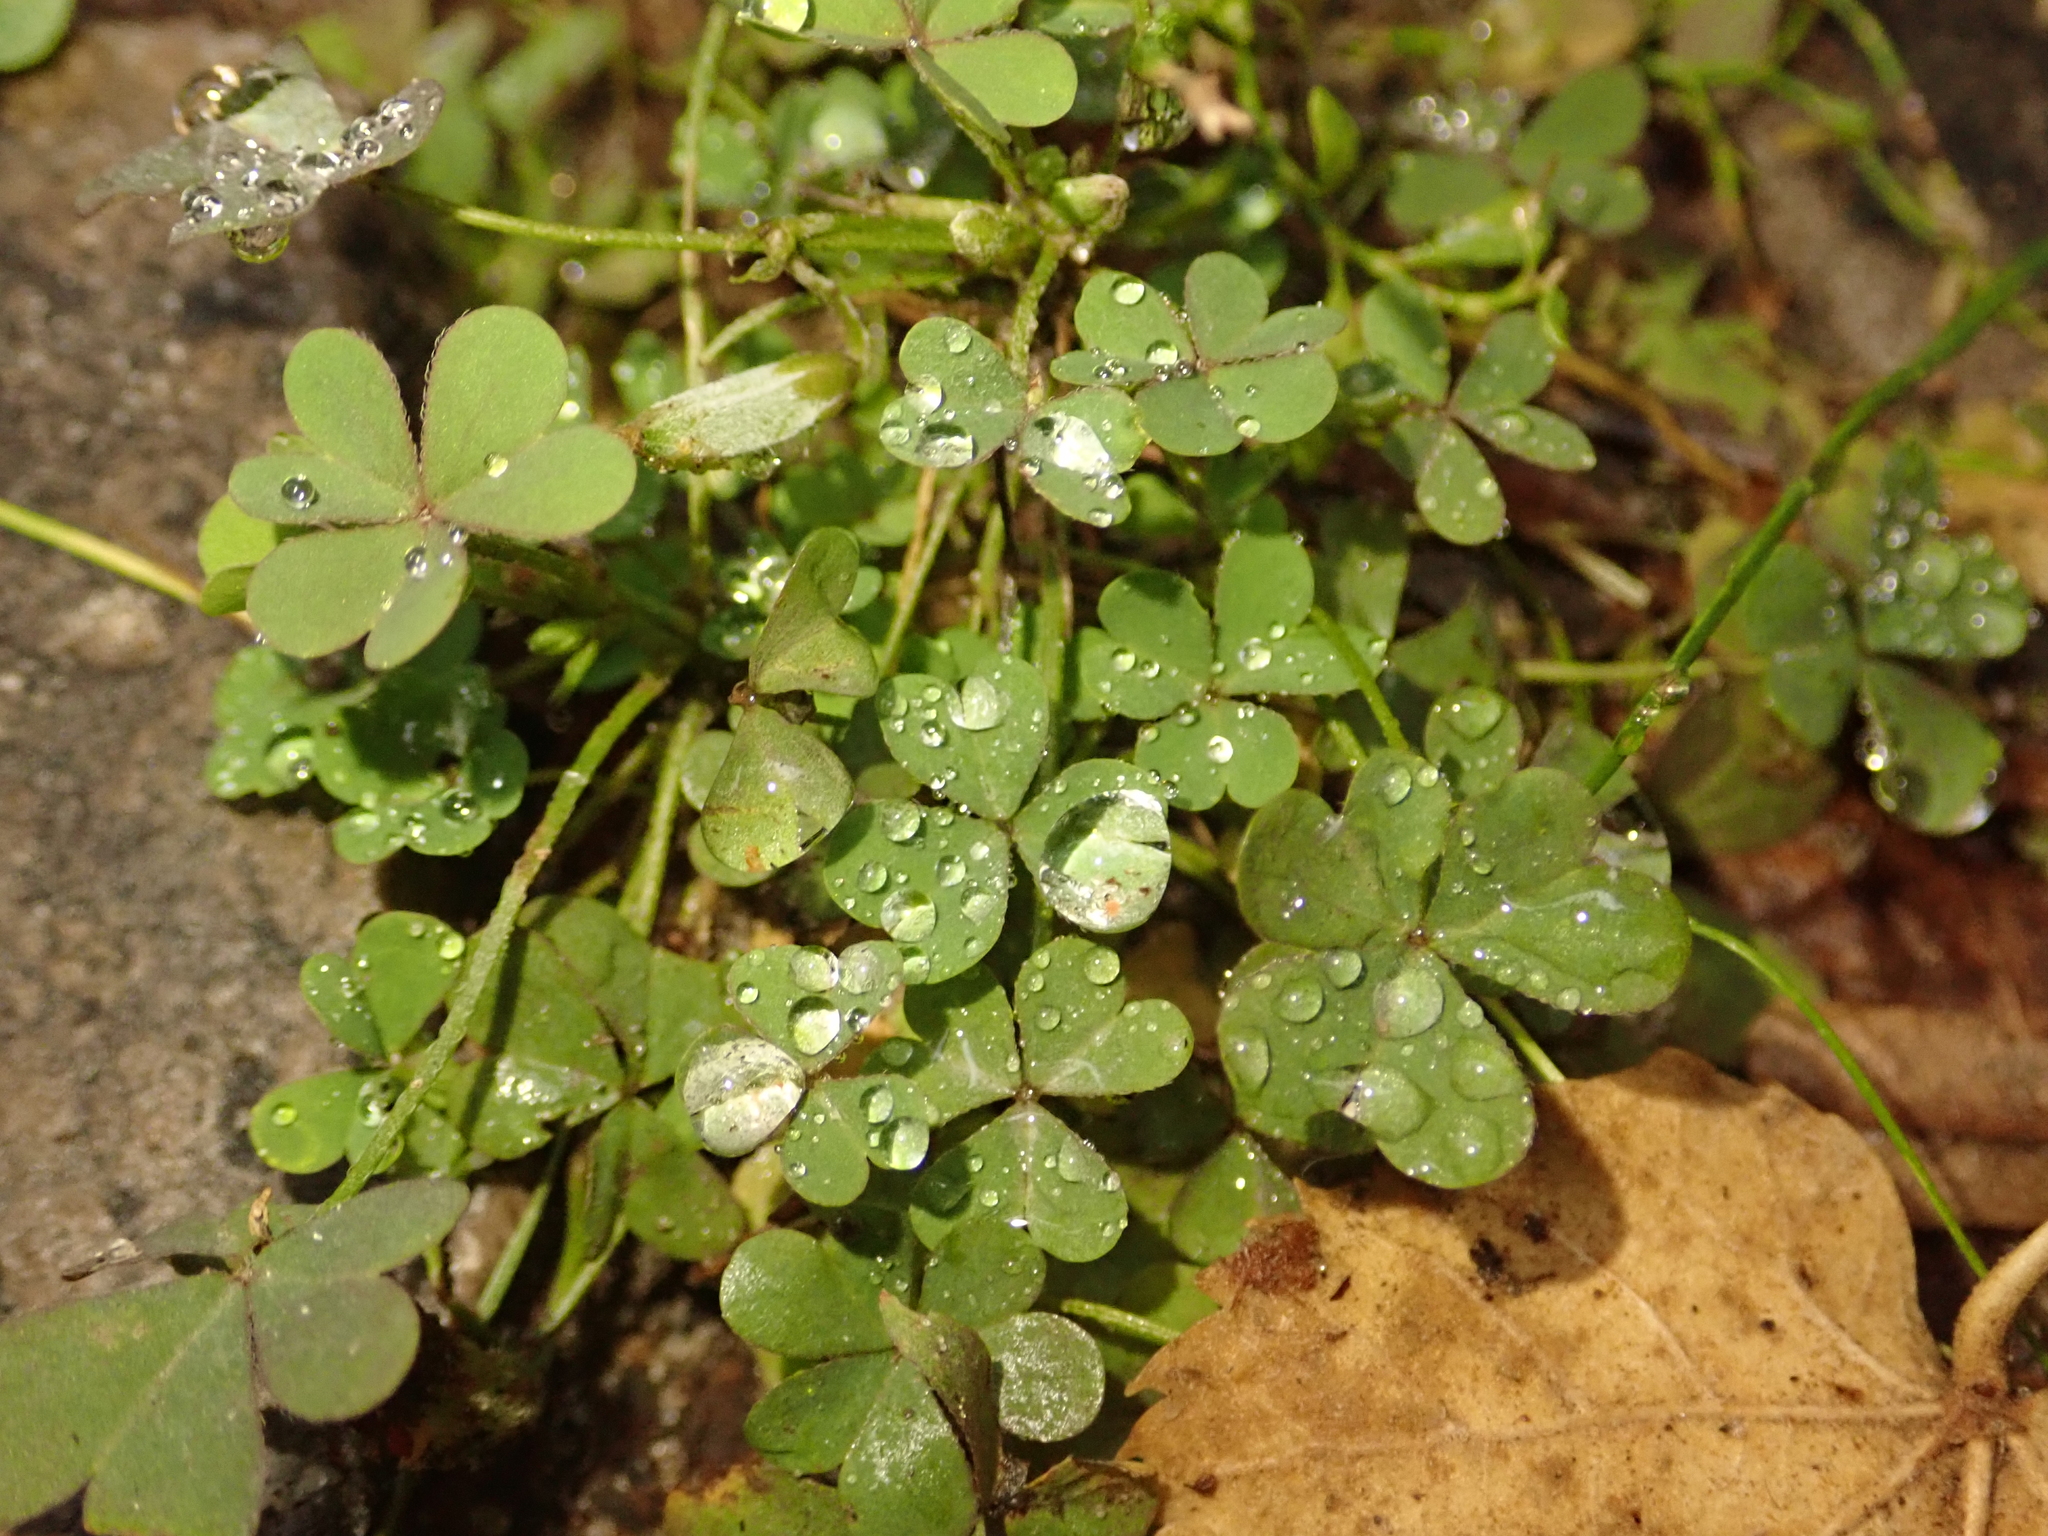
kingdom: Plantae
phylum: Tracheophyta
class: Magnoliopsida
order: Oxalidales
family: Oxalidaceae
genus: Oxalis
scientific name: Oxalis corniculata
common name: Procumbent yellow-sorrel
